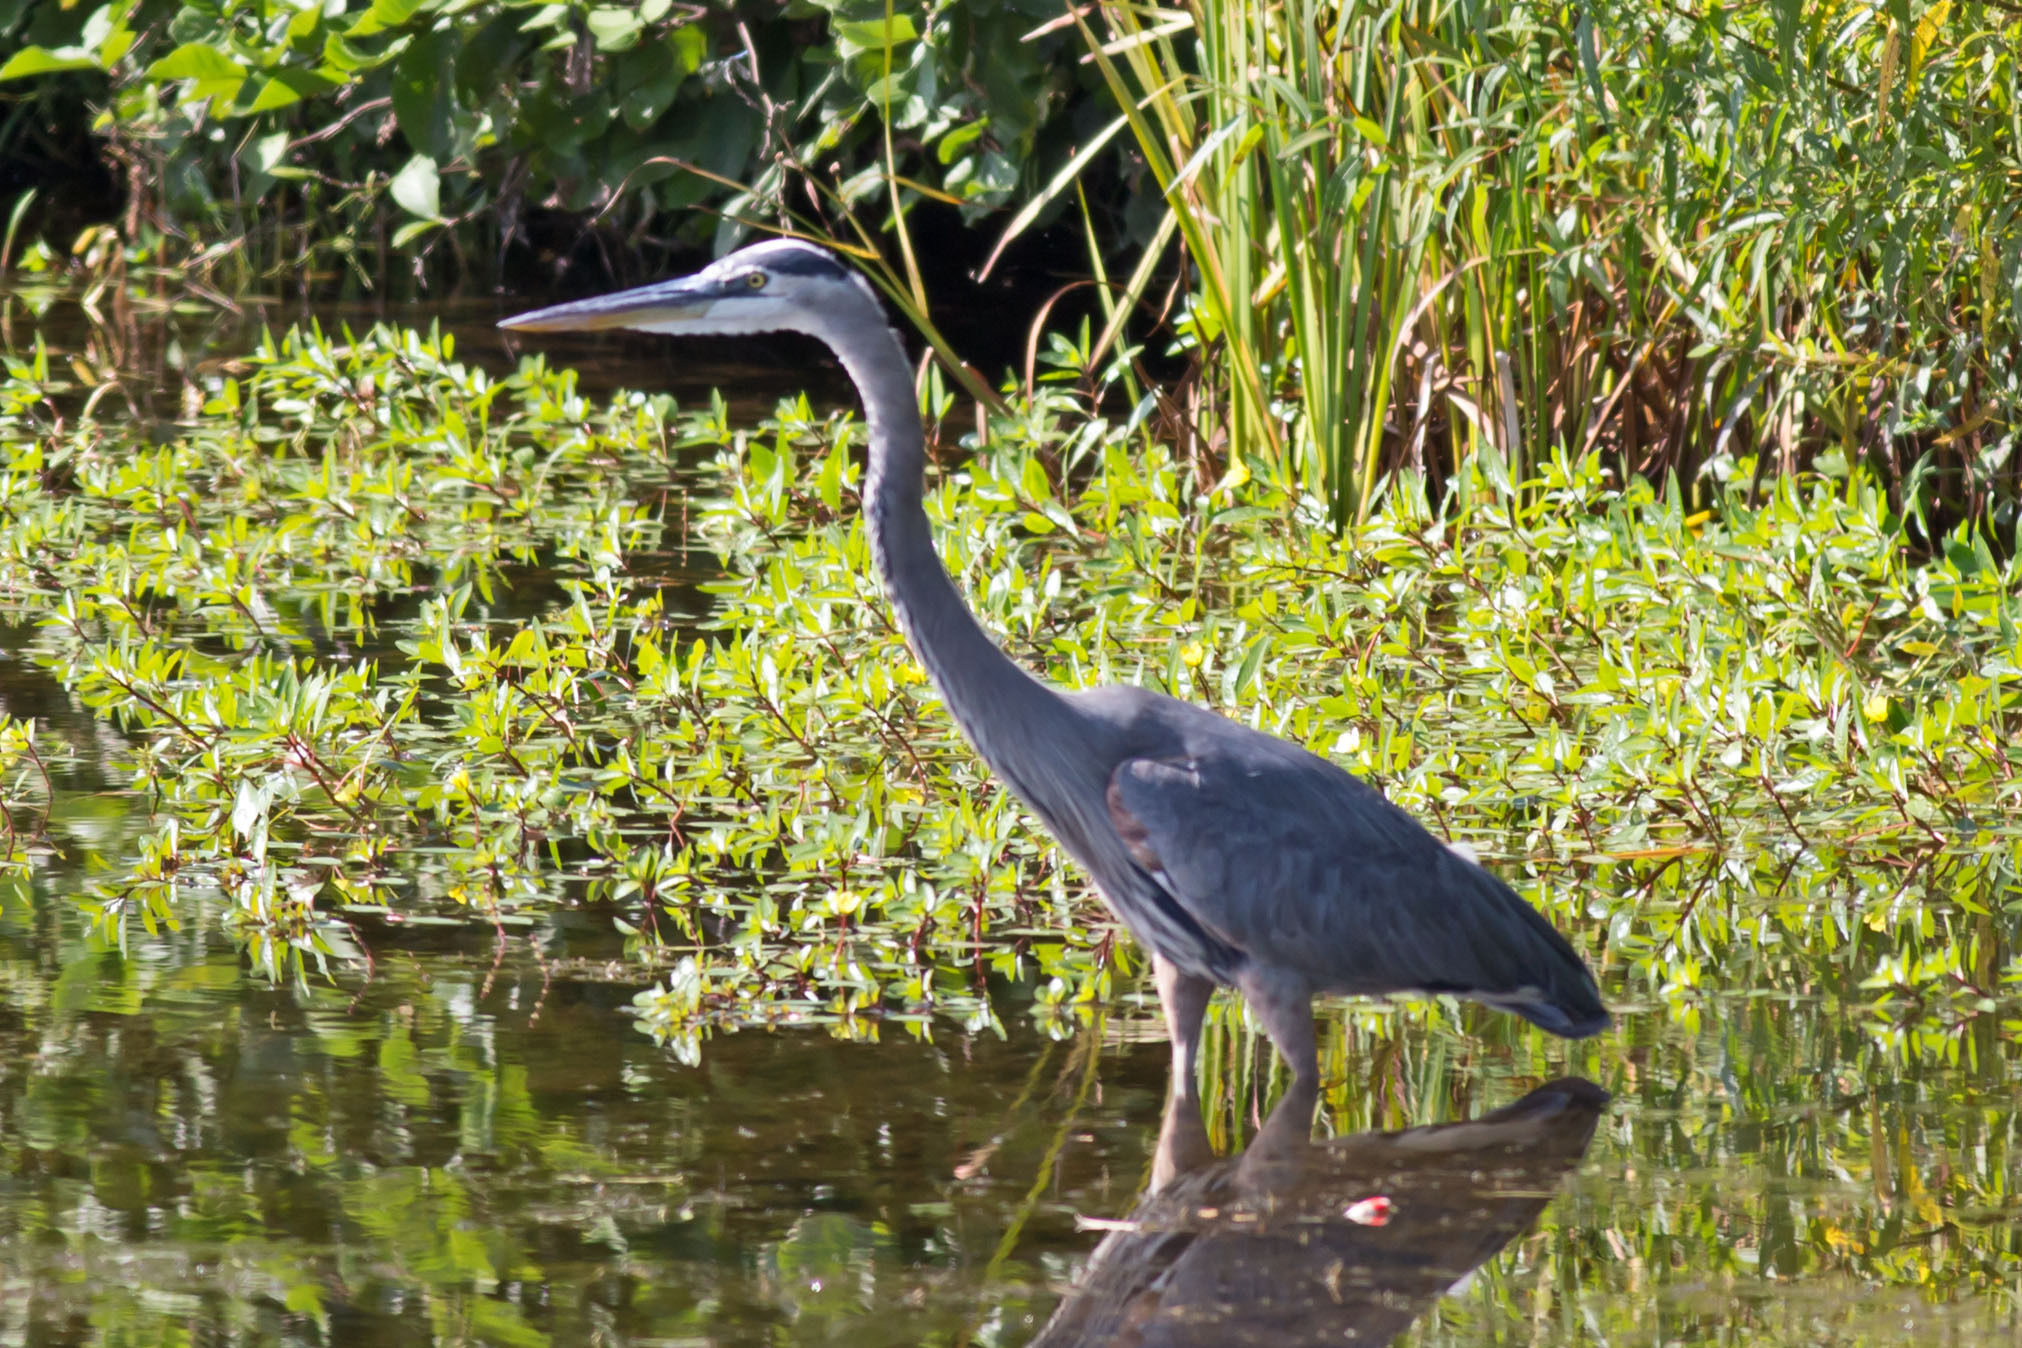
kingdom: Animalia
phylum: Chordata
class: Aves
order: Pelecaniformes
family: Ardeidae
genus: Ardea
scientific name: Ardea herodias
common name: Great blue heron
